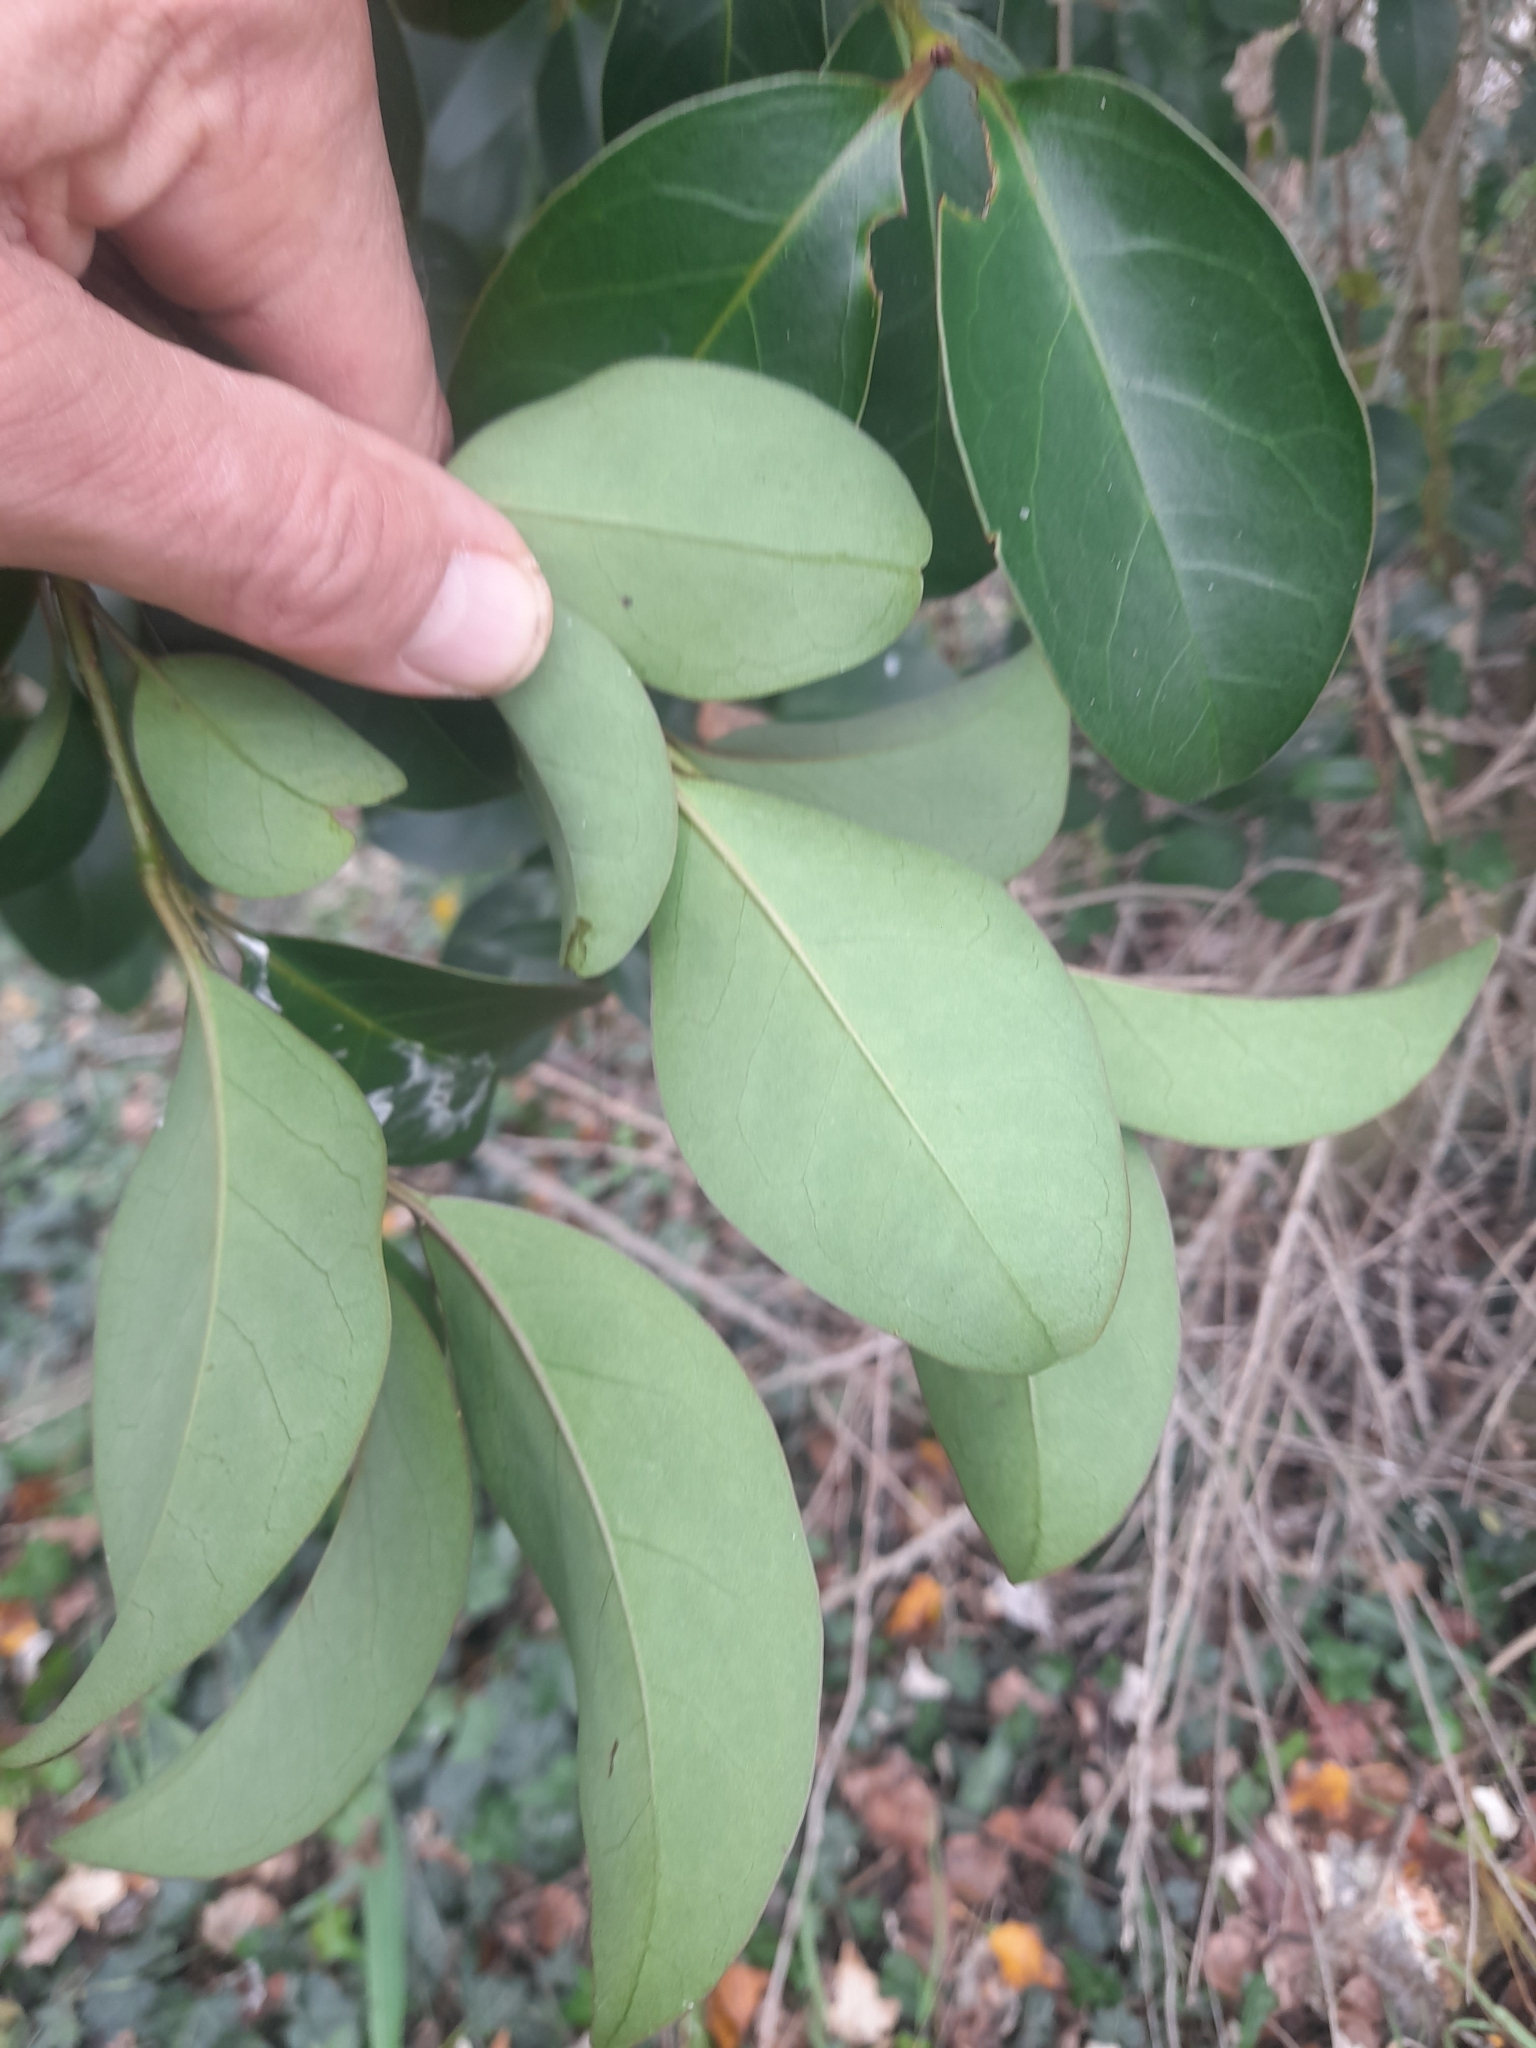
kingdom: Plantae
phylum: Tracheophyta
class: Magnoliopsida
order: Lamiales
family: Oleaceae
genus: Ligustrum
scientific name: Ligustrum lucidum
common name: Glossy privet
